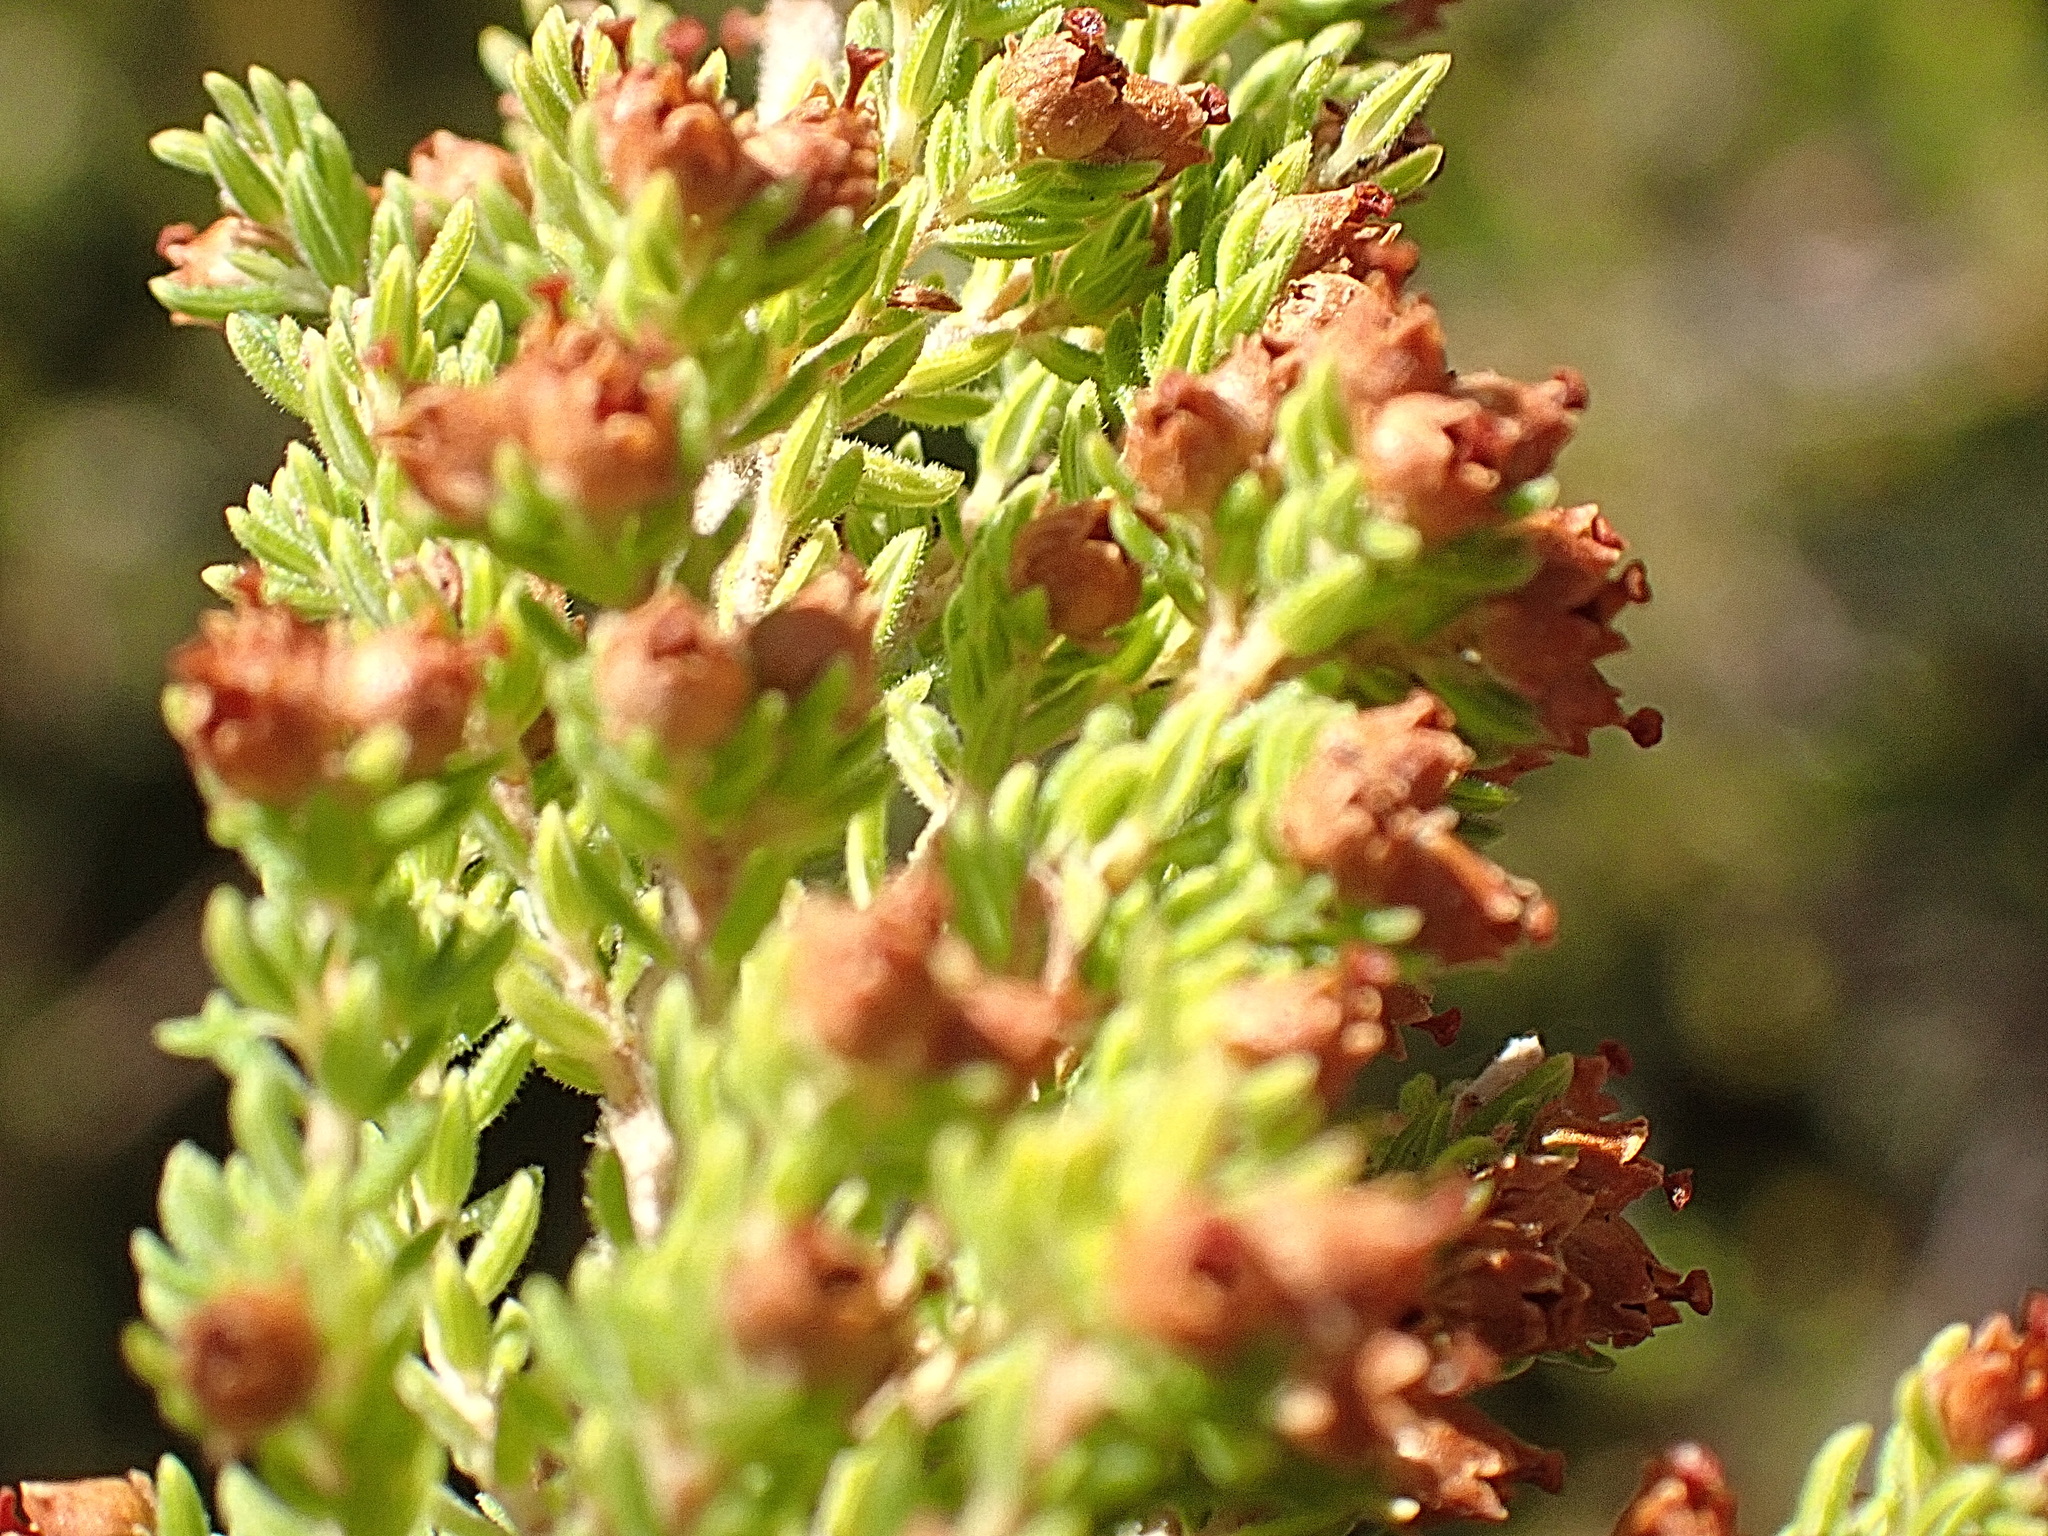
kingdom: Plantae
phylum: Tracheophyta
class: Magnoliopsida
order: Ericales
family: Ericaceae
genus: Erica
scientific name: Erica leucopelta
